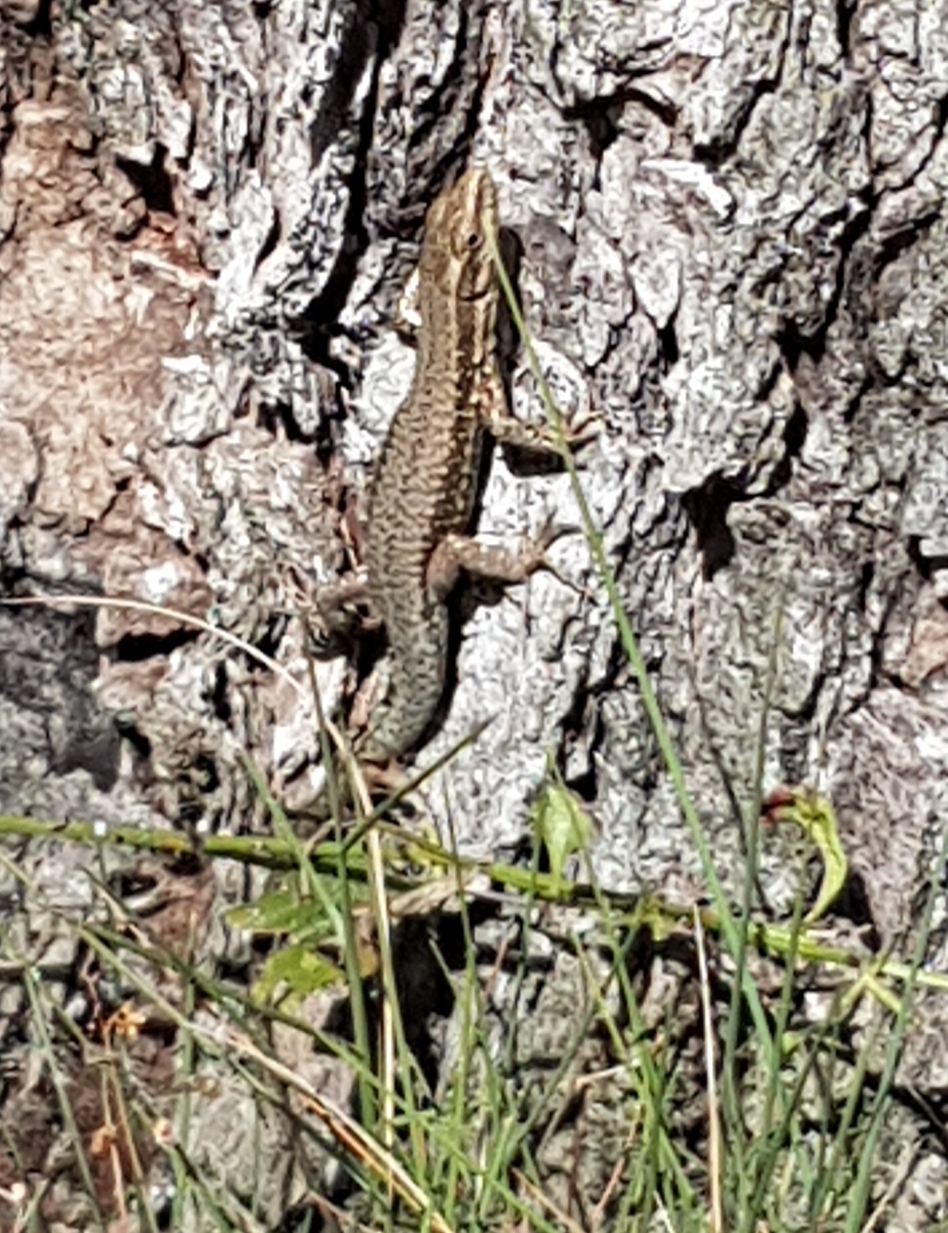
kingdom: Animalia
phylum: Chordata
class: Squamata
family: Lacertidae
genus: Podarcis
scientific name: Podarcis muralis
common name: Common wall lizard
